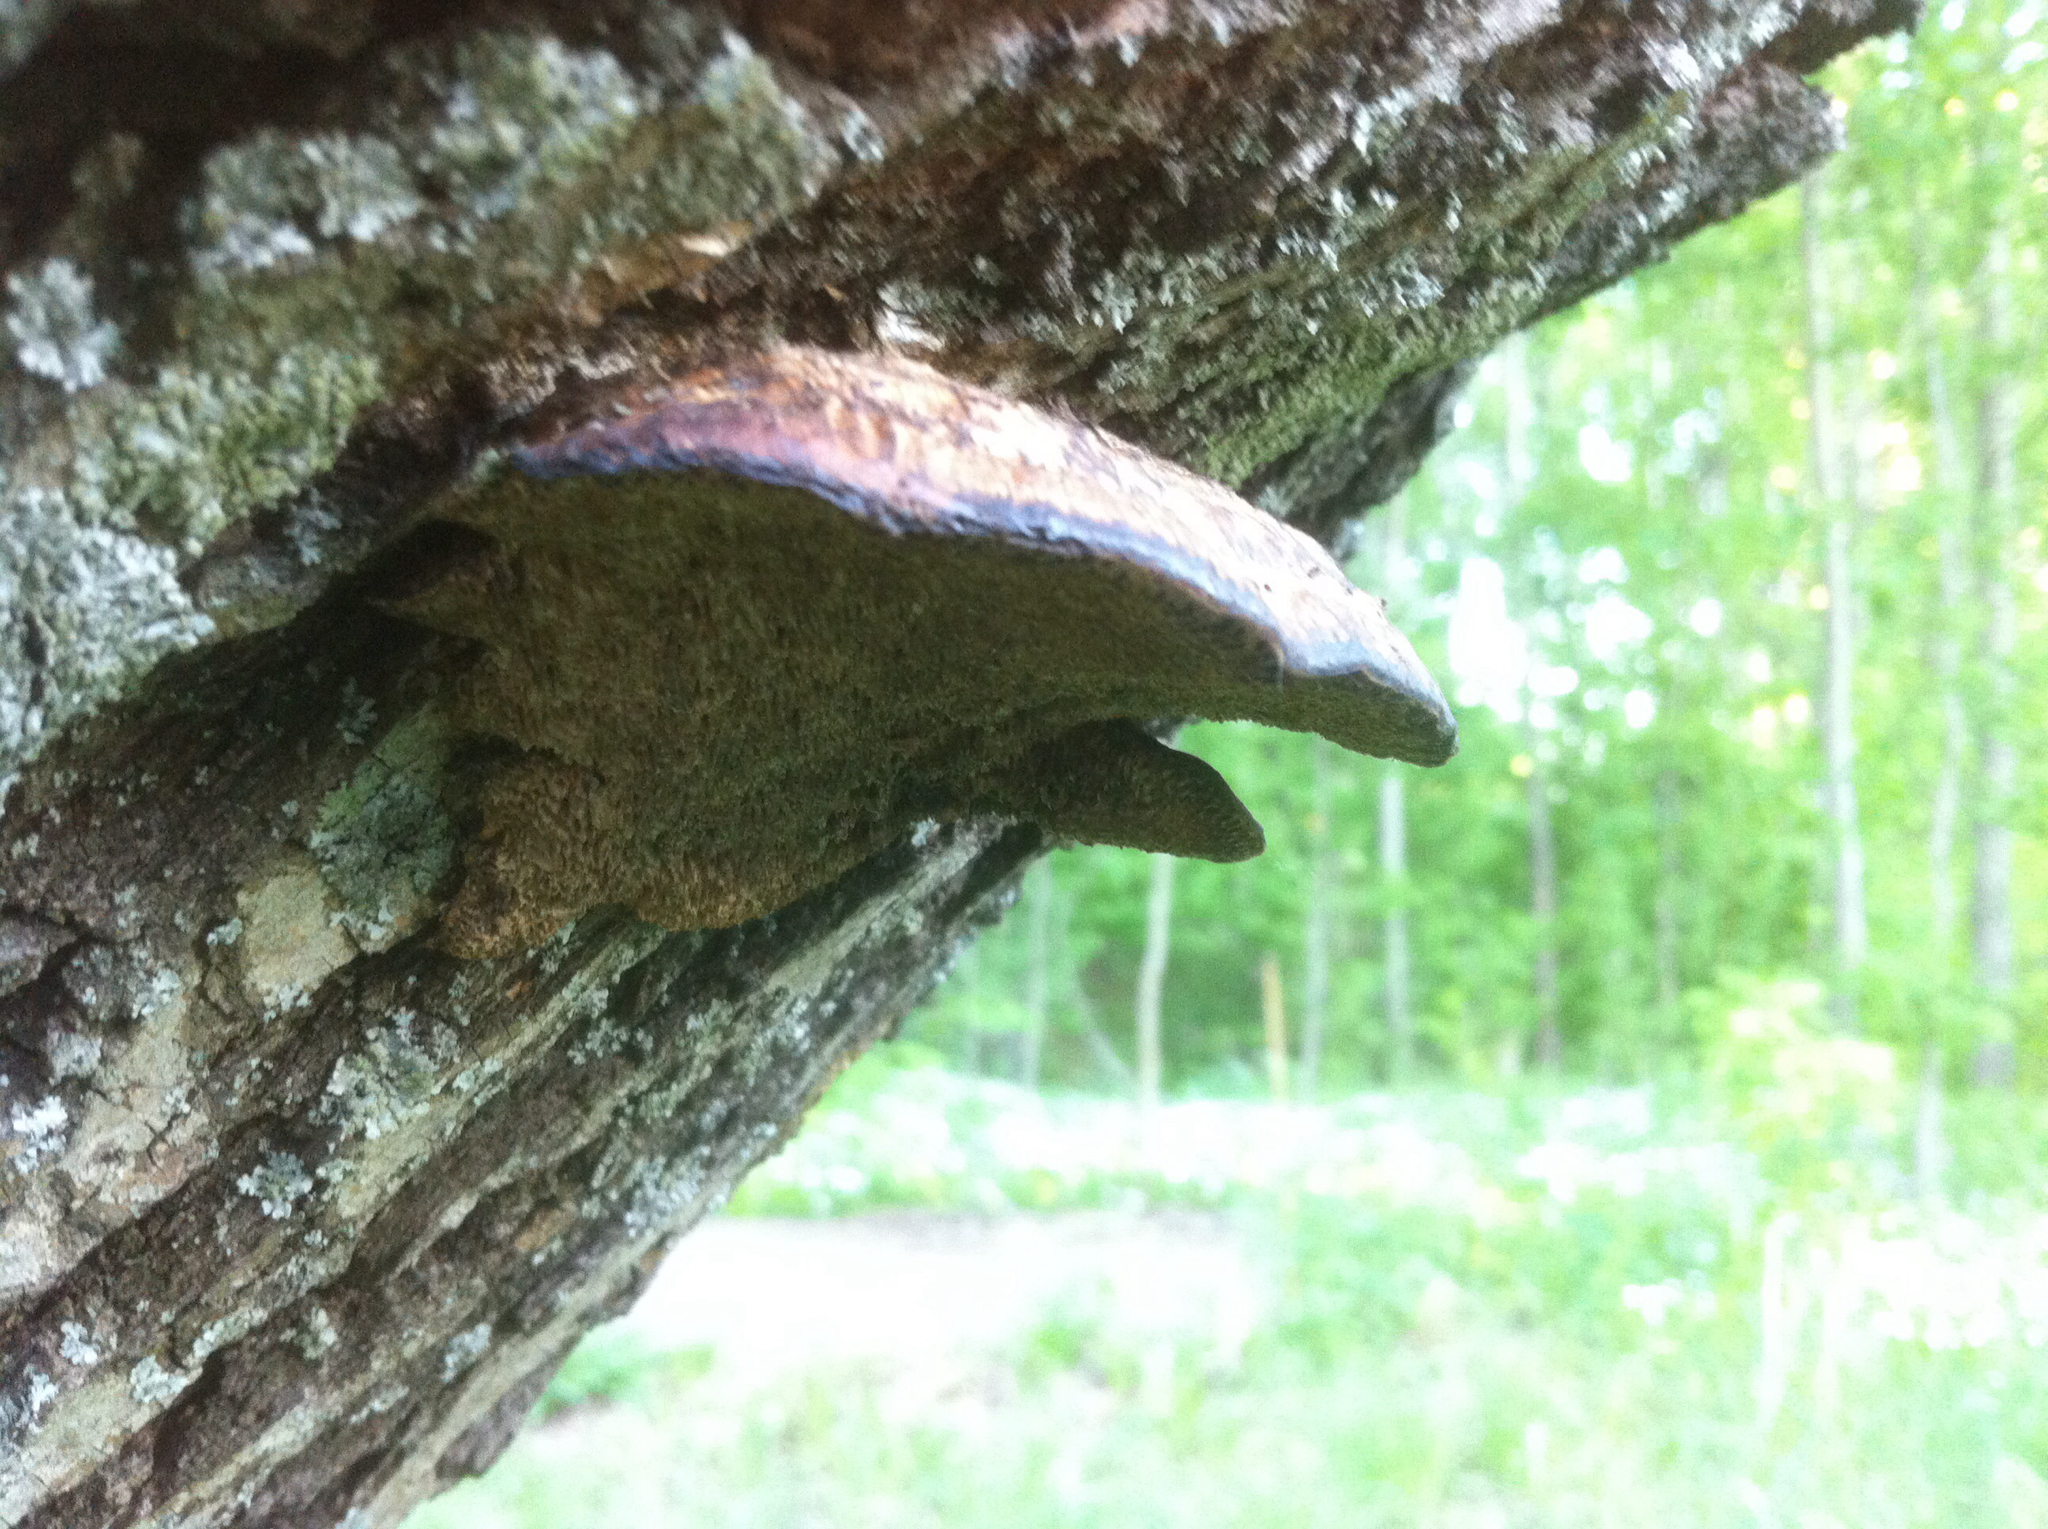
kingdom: Fungi
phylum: Basidiomycota
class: Agaricomycetes
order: Polyporales
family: Polyporaceae
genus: Daedaleopsis
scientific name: Daedaleopsis confragosa
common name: Blushing bracket
